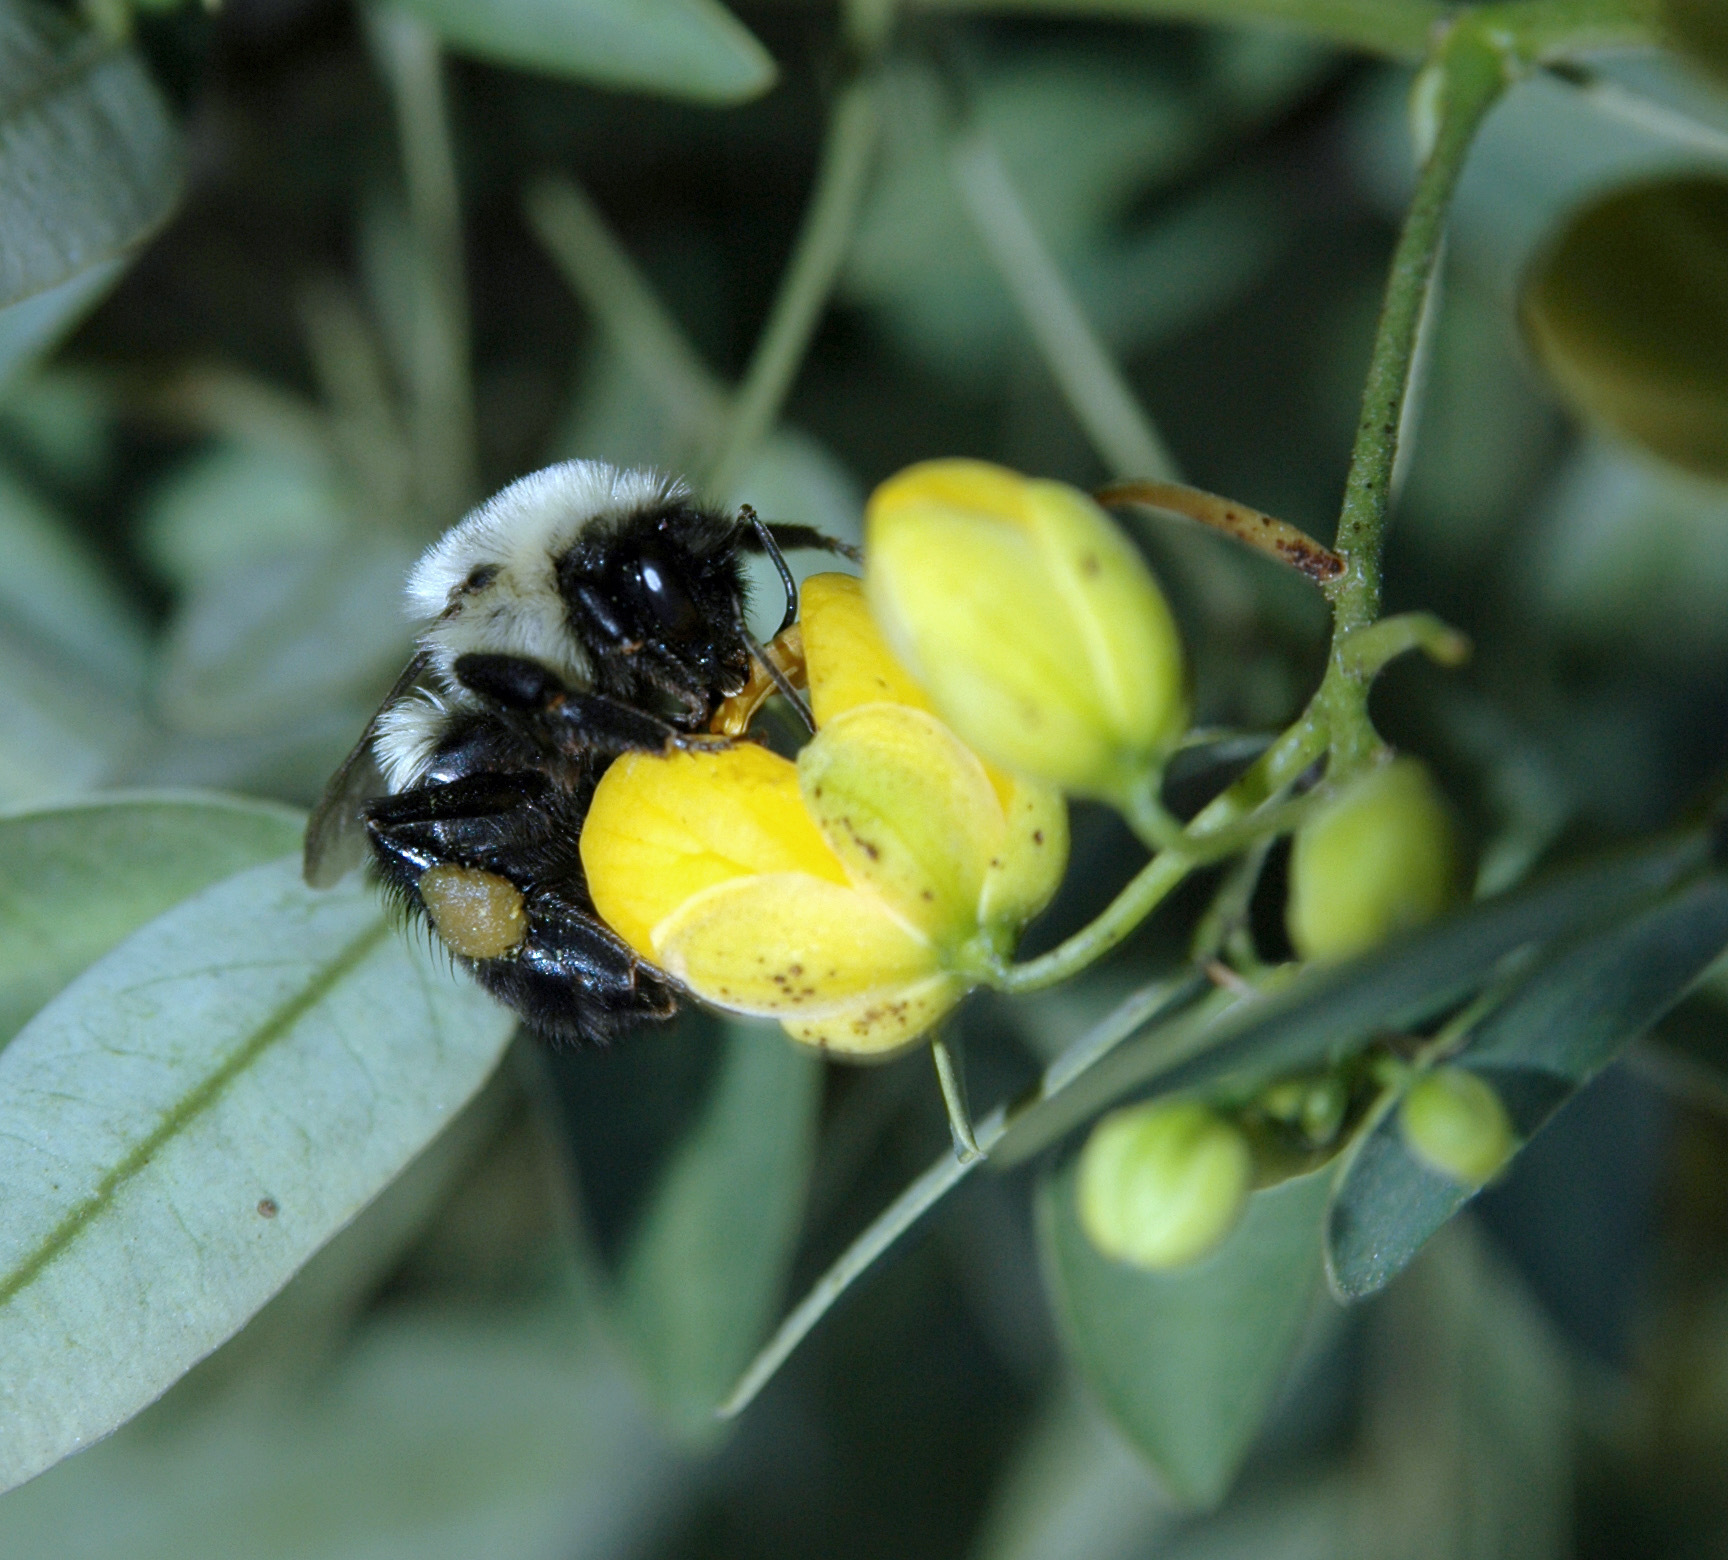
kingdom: Animalia
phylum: Arthropoda
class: Insecta
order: Hymenoptera
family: Apidae
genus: Bombus
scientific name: Bombus impatiens
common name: Common eastern bumble bee
